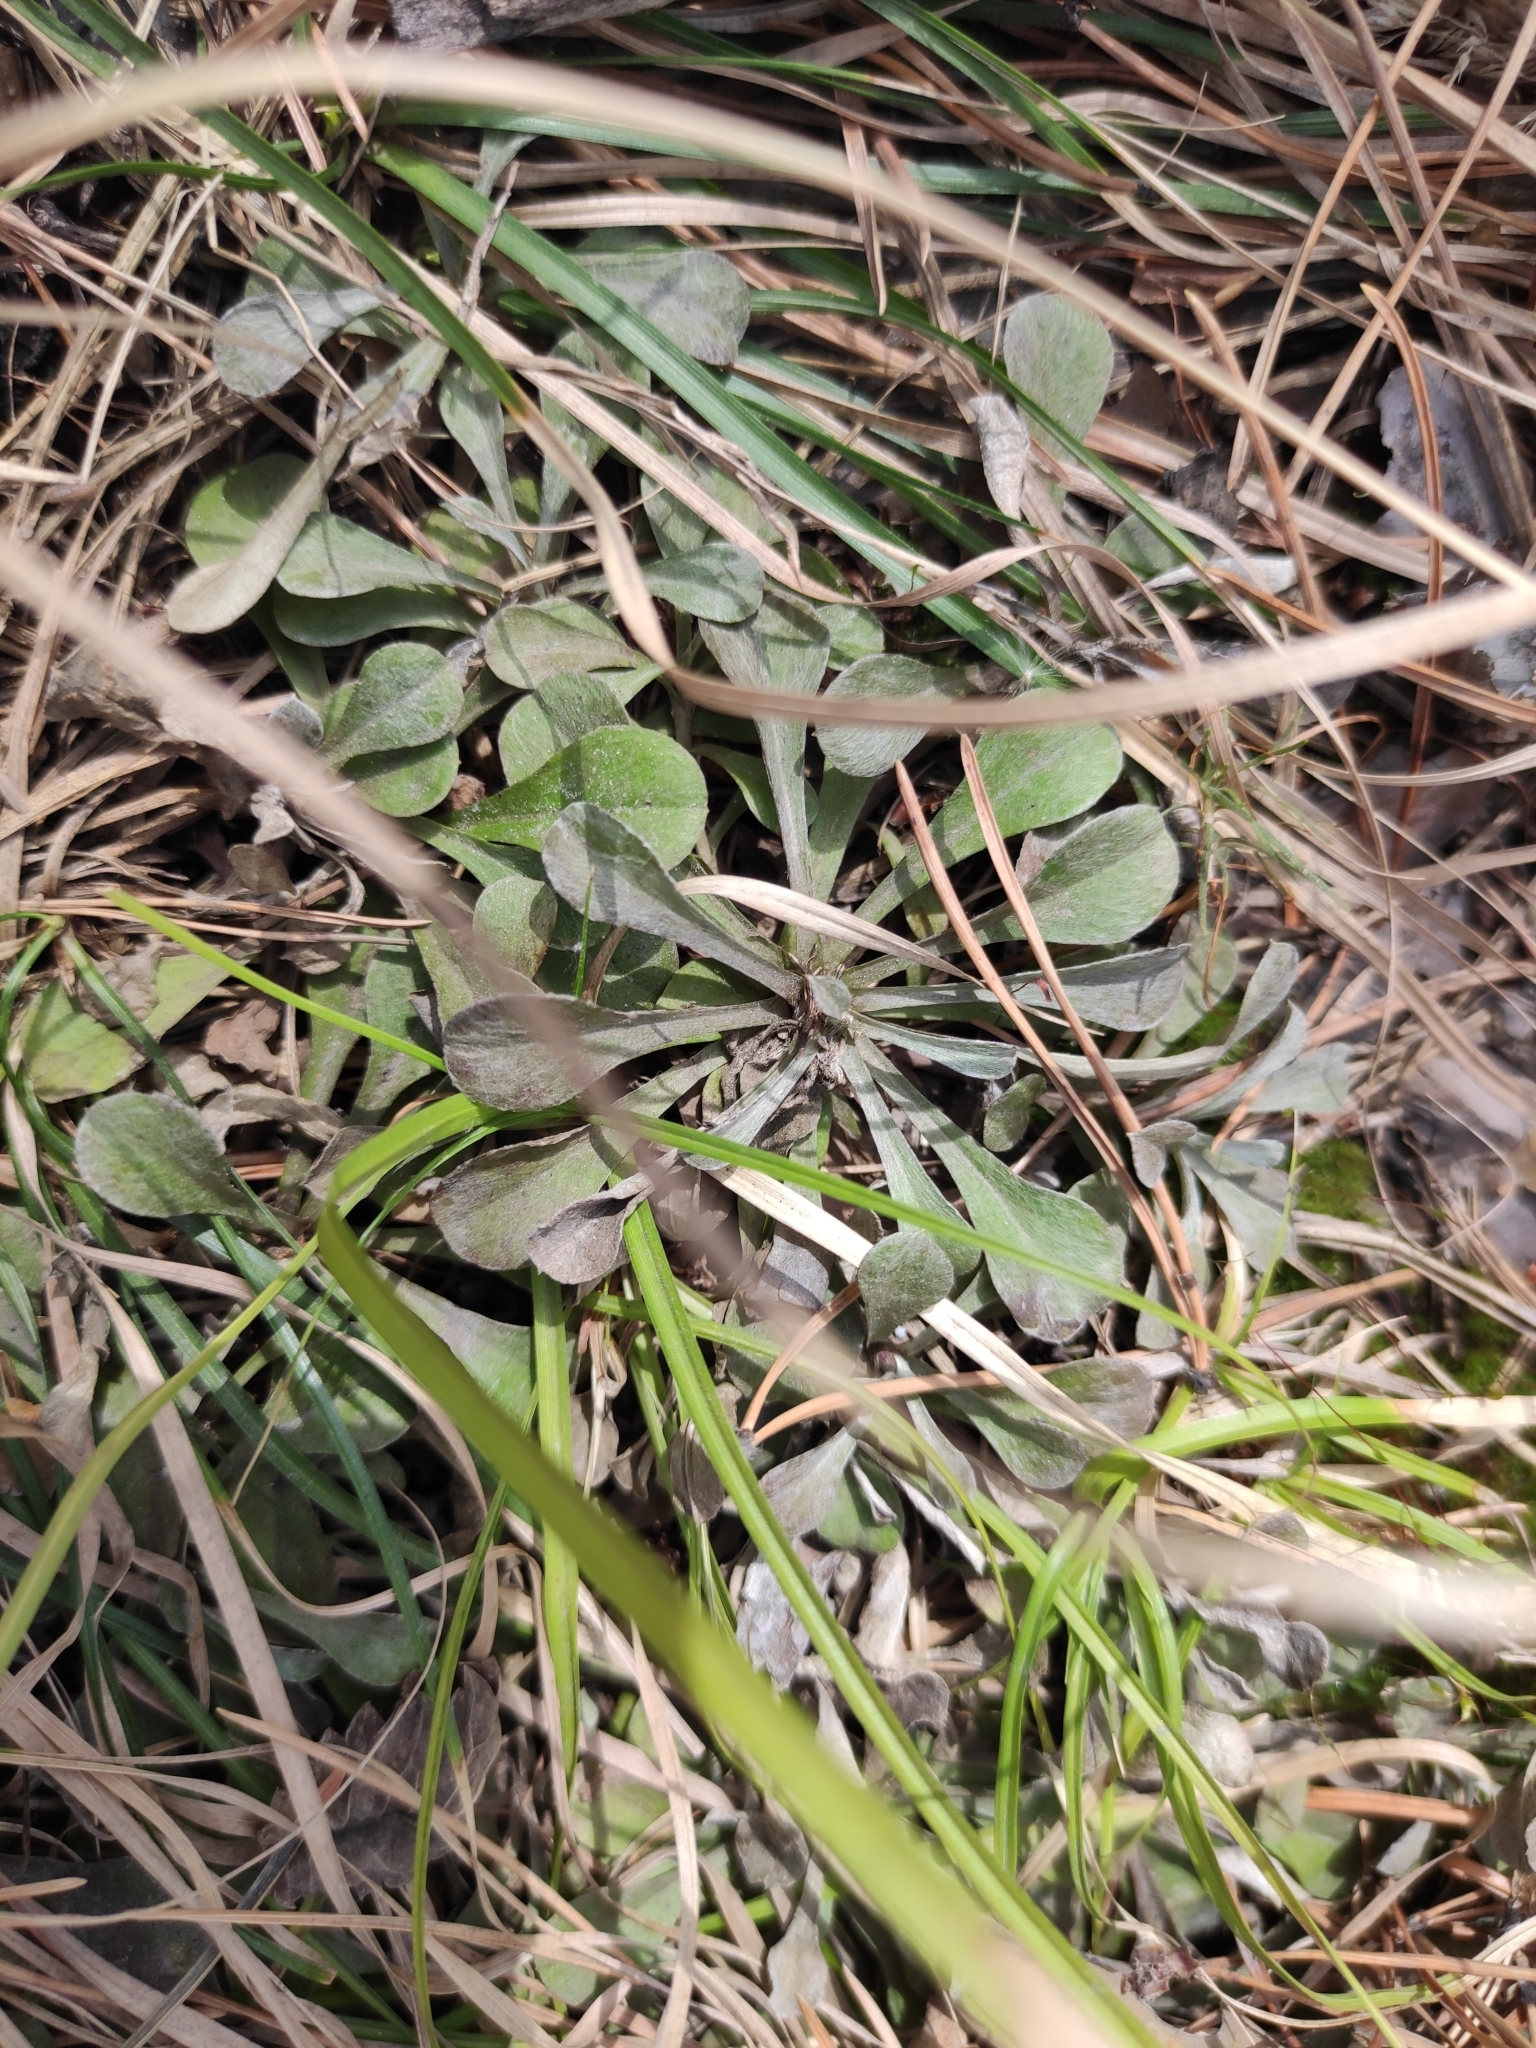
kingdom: Plantae
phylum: Tracheophyta
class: Magnoliopsida
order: Asterales
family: Asteraceae
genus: Antennaria
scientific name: Antennaria dioica
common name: Mountain everlasting
